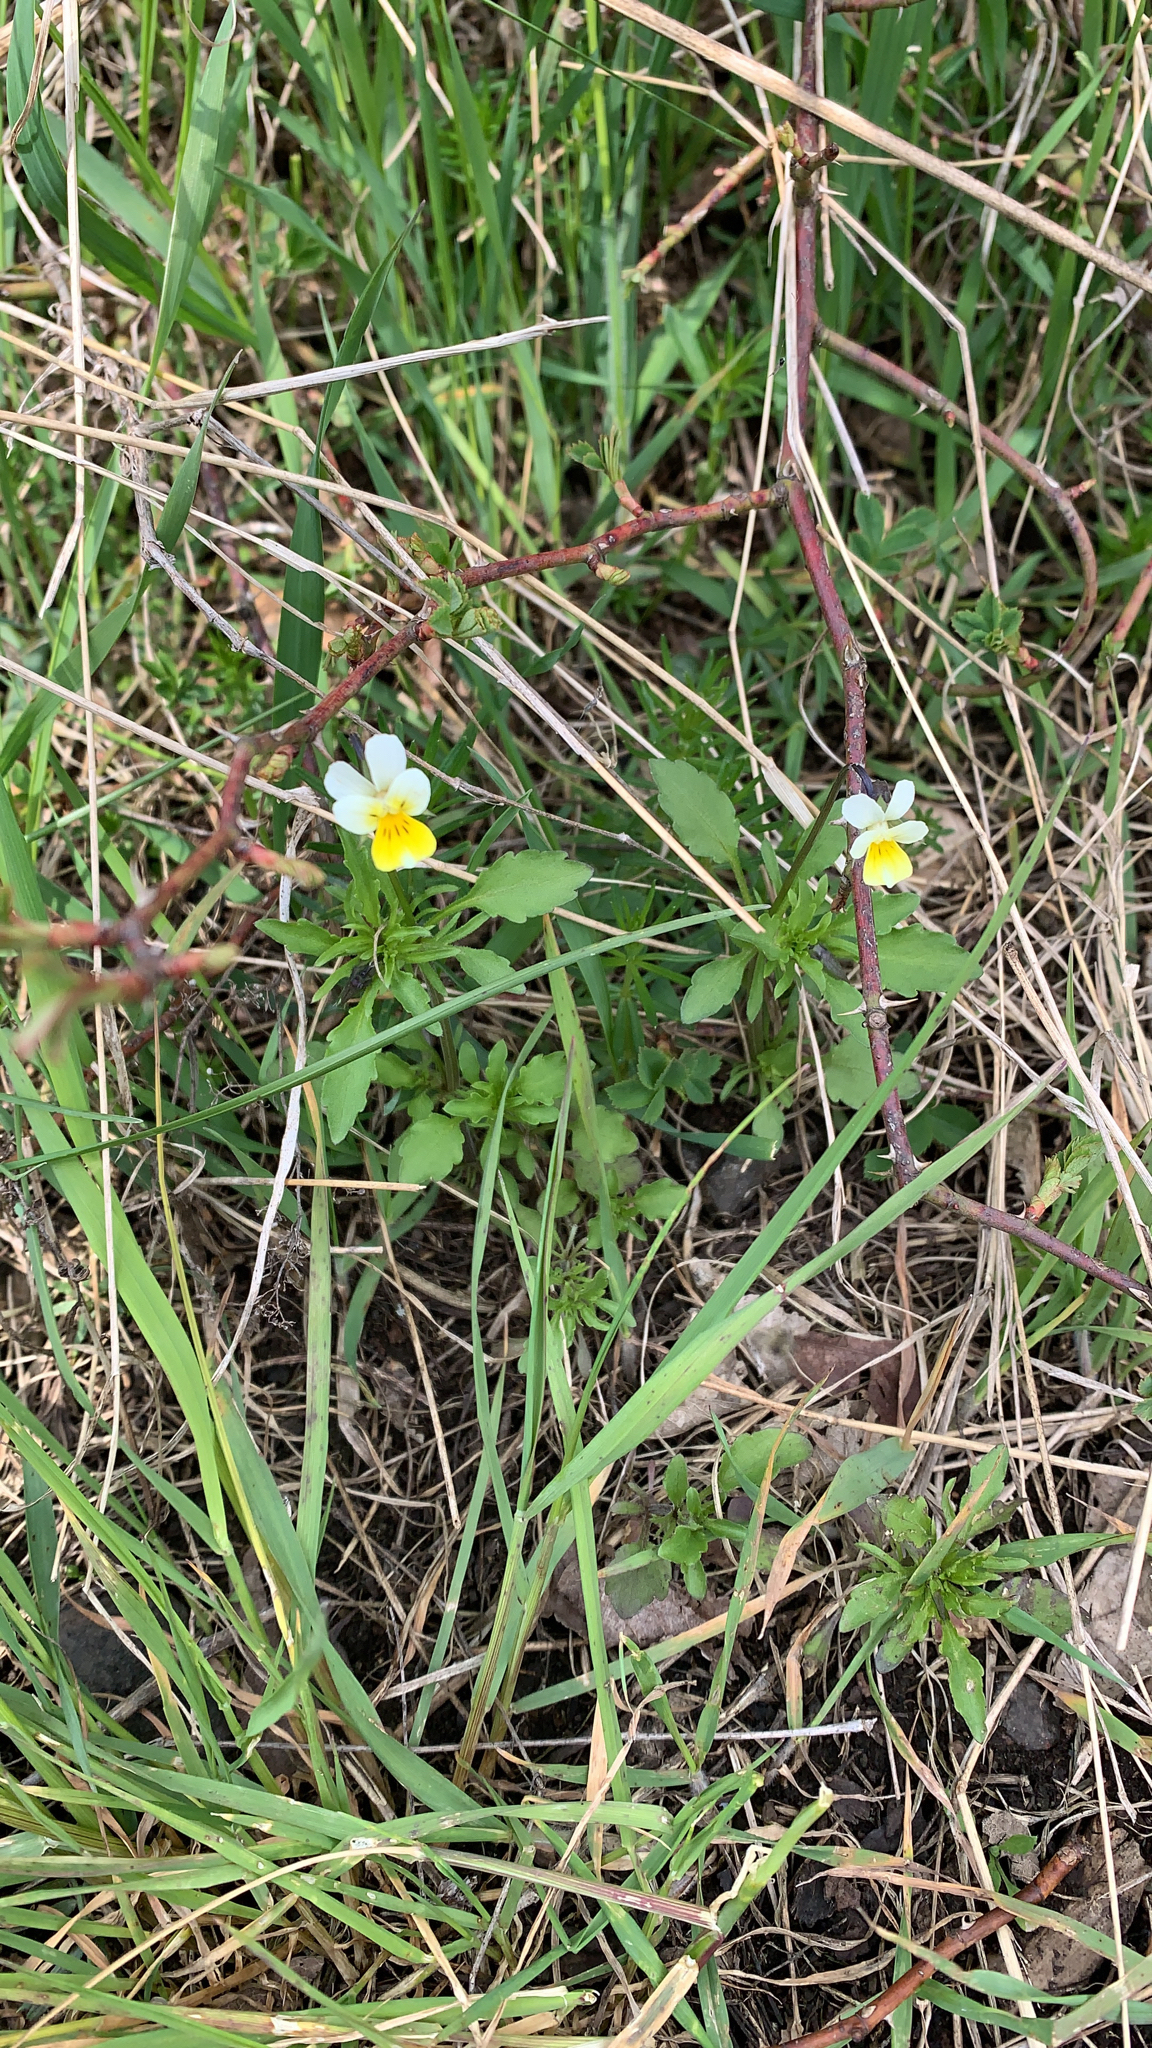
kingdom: Plantae
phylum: Tracheophyta
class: Magnoliopsida
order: Malpighiales
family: Violaceae
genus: Viola
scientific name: Viola arvensis
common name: Field pansy
